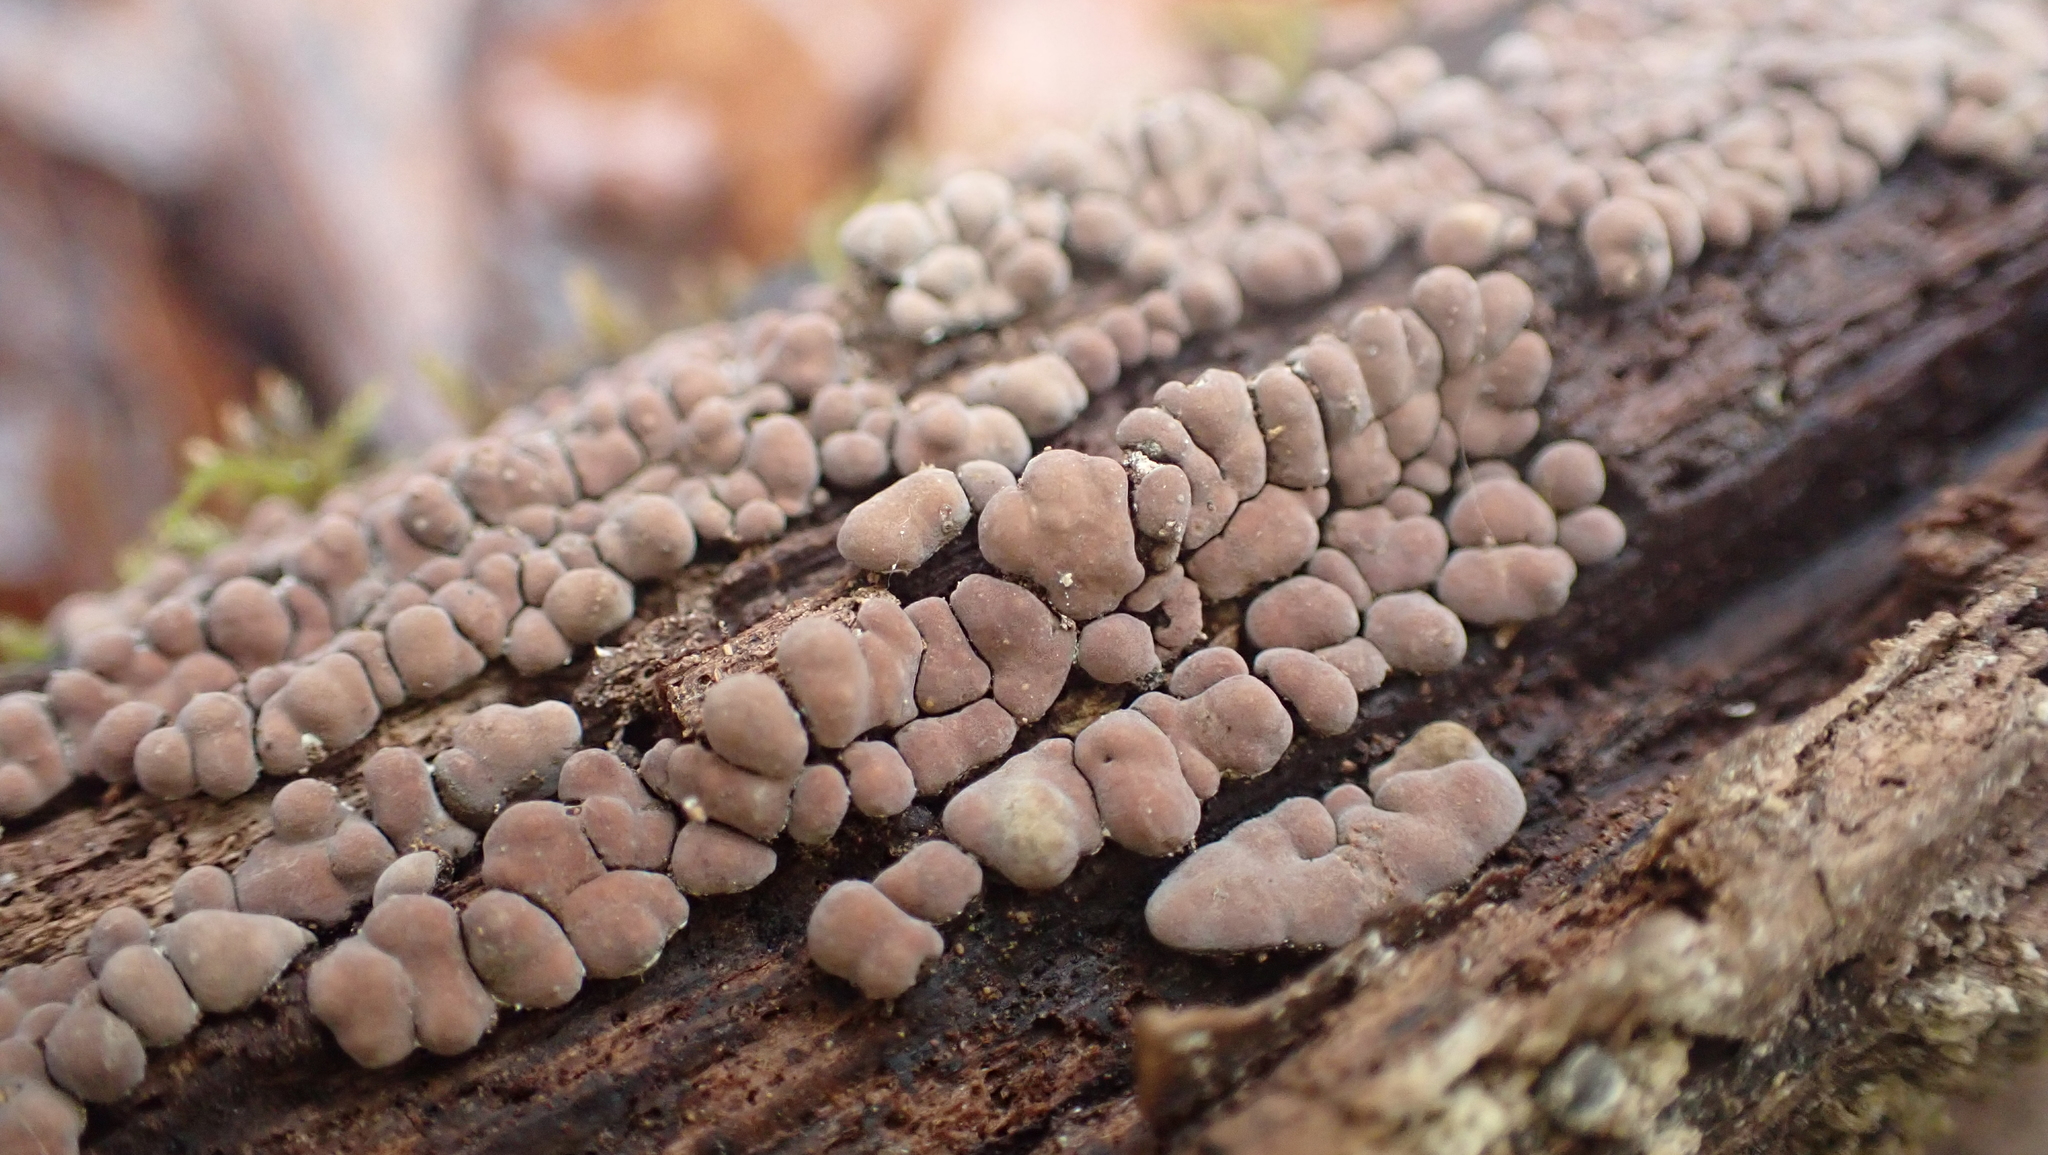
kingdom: Fungi
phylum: Basidiomycota
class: Agaricomycetes
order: Russulales
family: Stereaceae
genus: Xylobolus
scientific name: Xylobolus frustulatus
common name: Ceramic parchment
